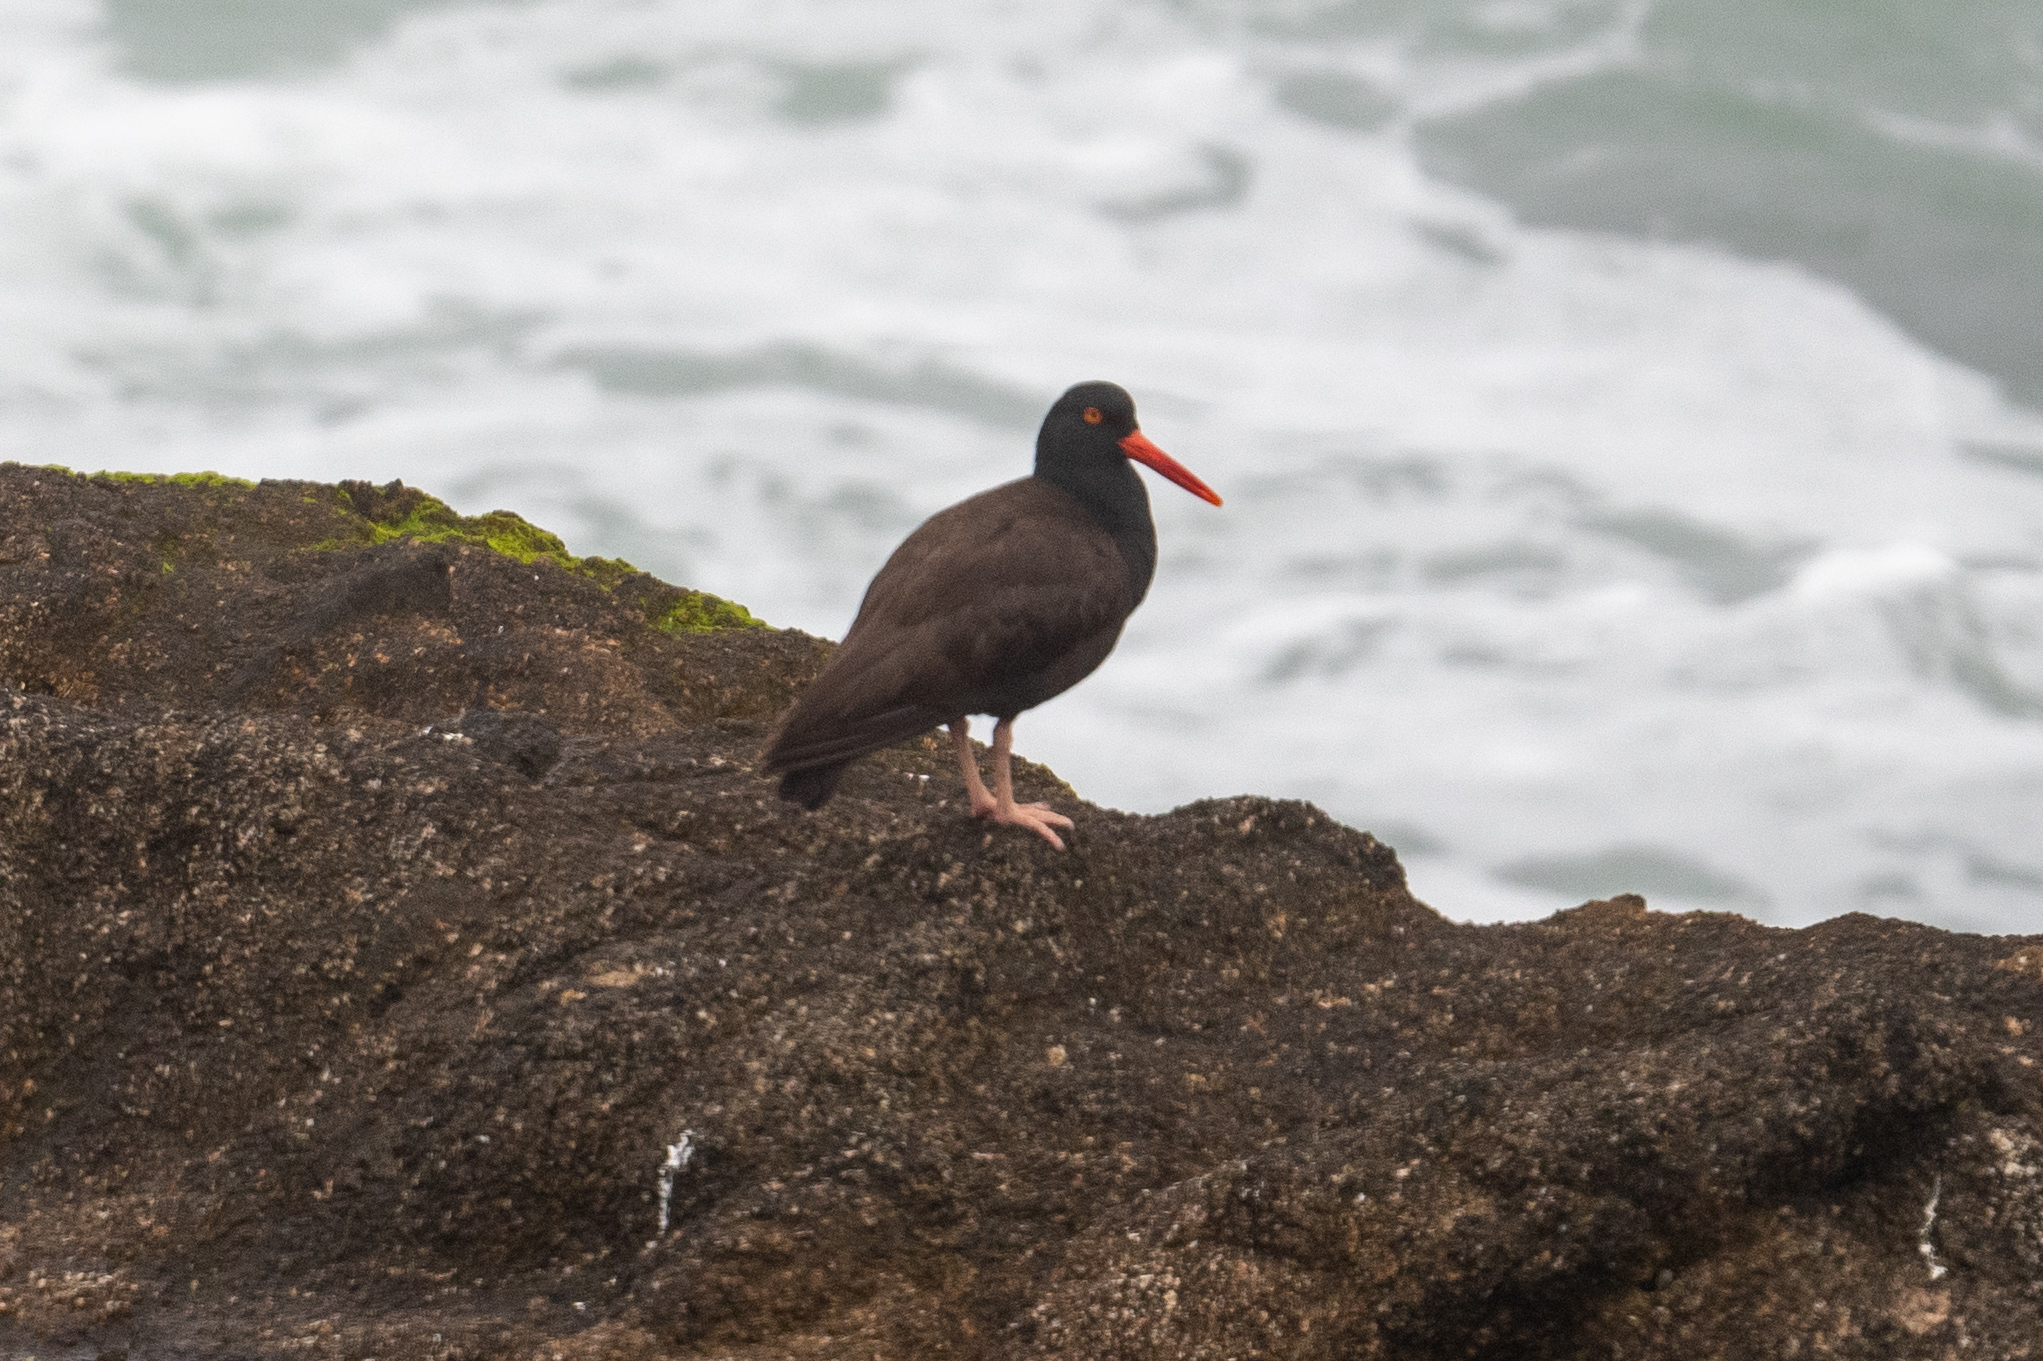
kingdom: Animalia
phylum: Chordata
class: Aves
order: Charadriiformes
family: Haematopodidae
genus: Haematopus
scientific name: Haematopus bachmani
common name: Black oystercatcher
